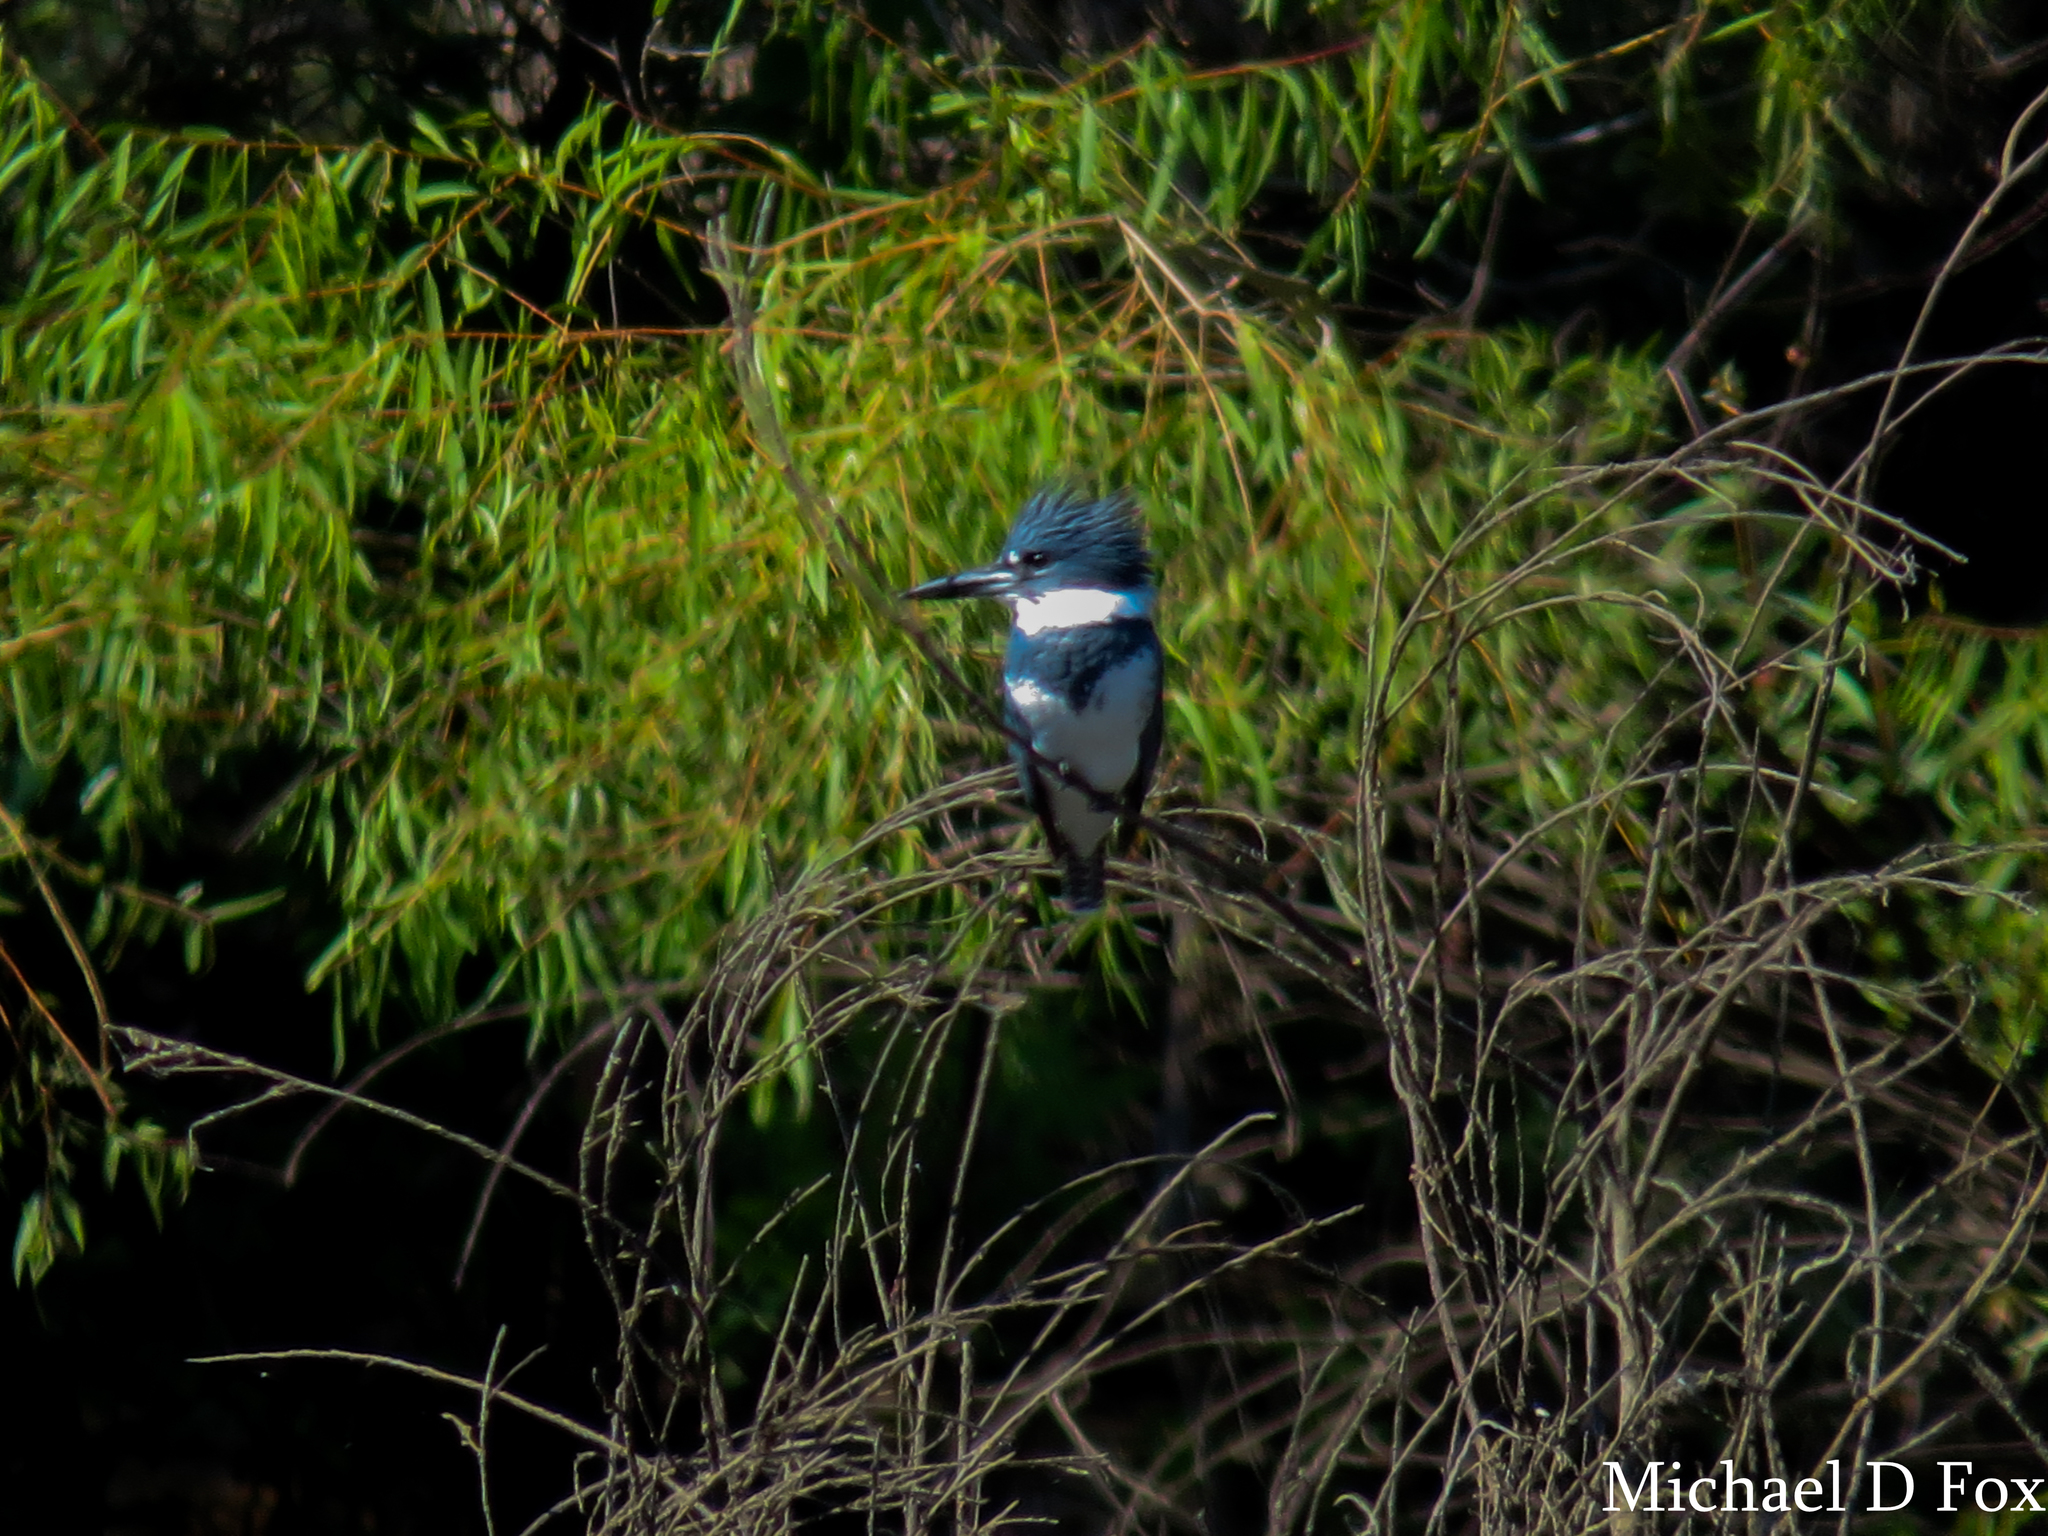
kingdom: Animalia
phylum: Chordata
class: Aves
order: Coraciiformes
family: Alcedinidae
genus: Megaceryle
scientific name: Megaceryle alcyon
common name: Belted kingfisher
